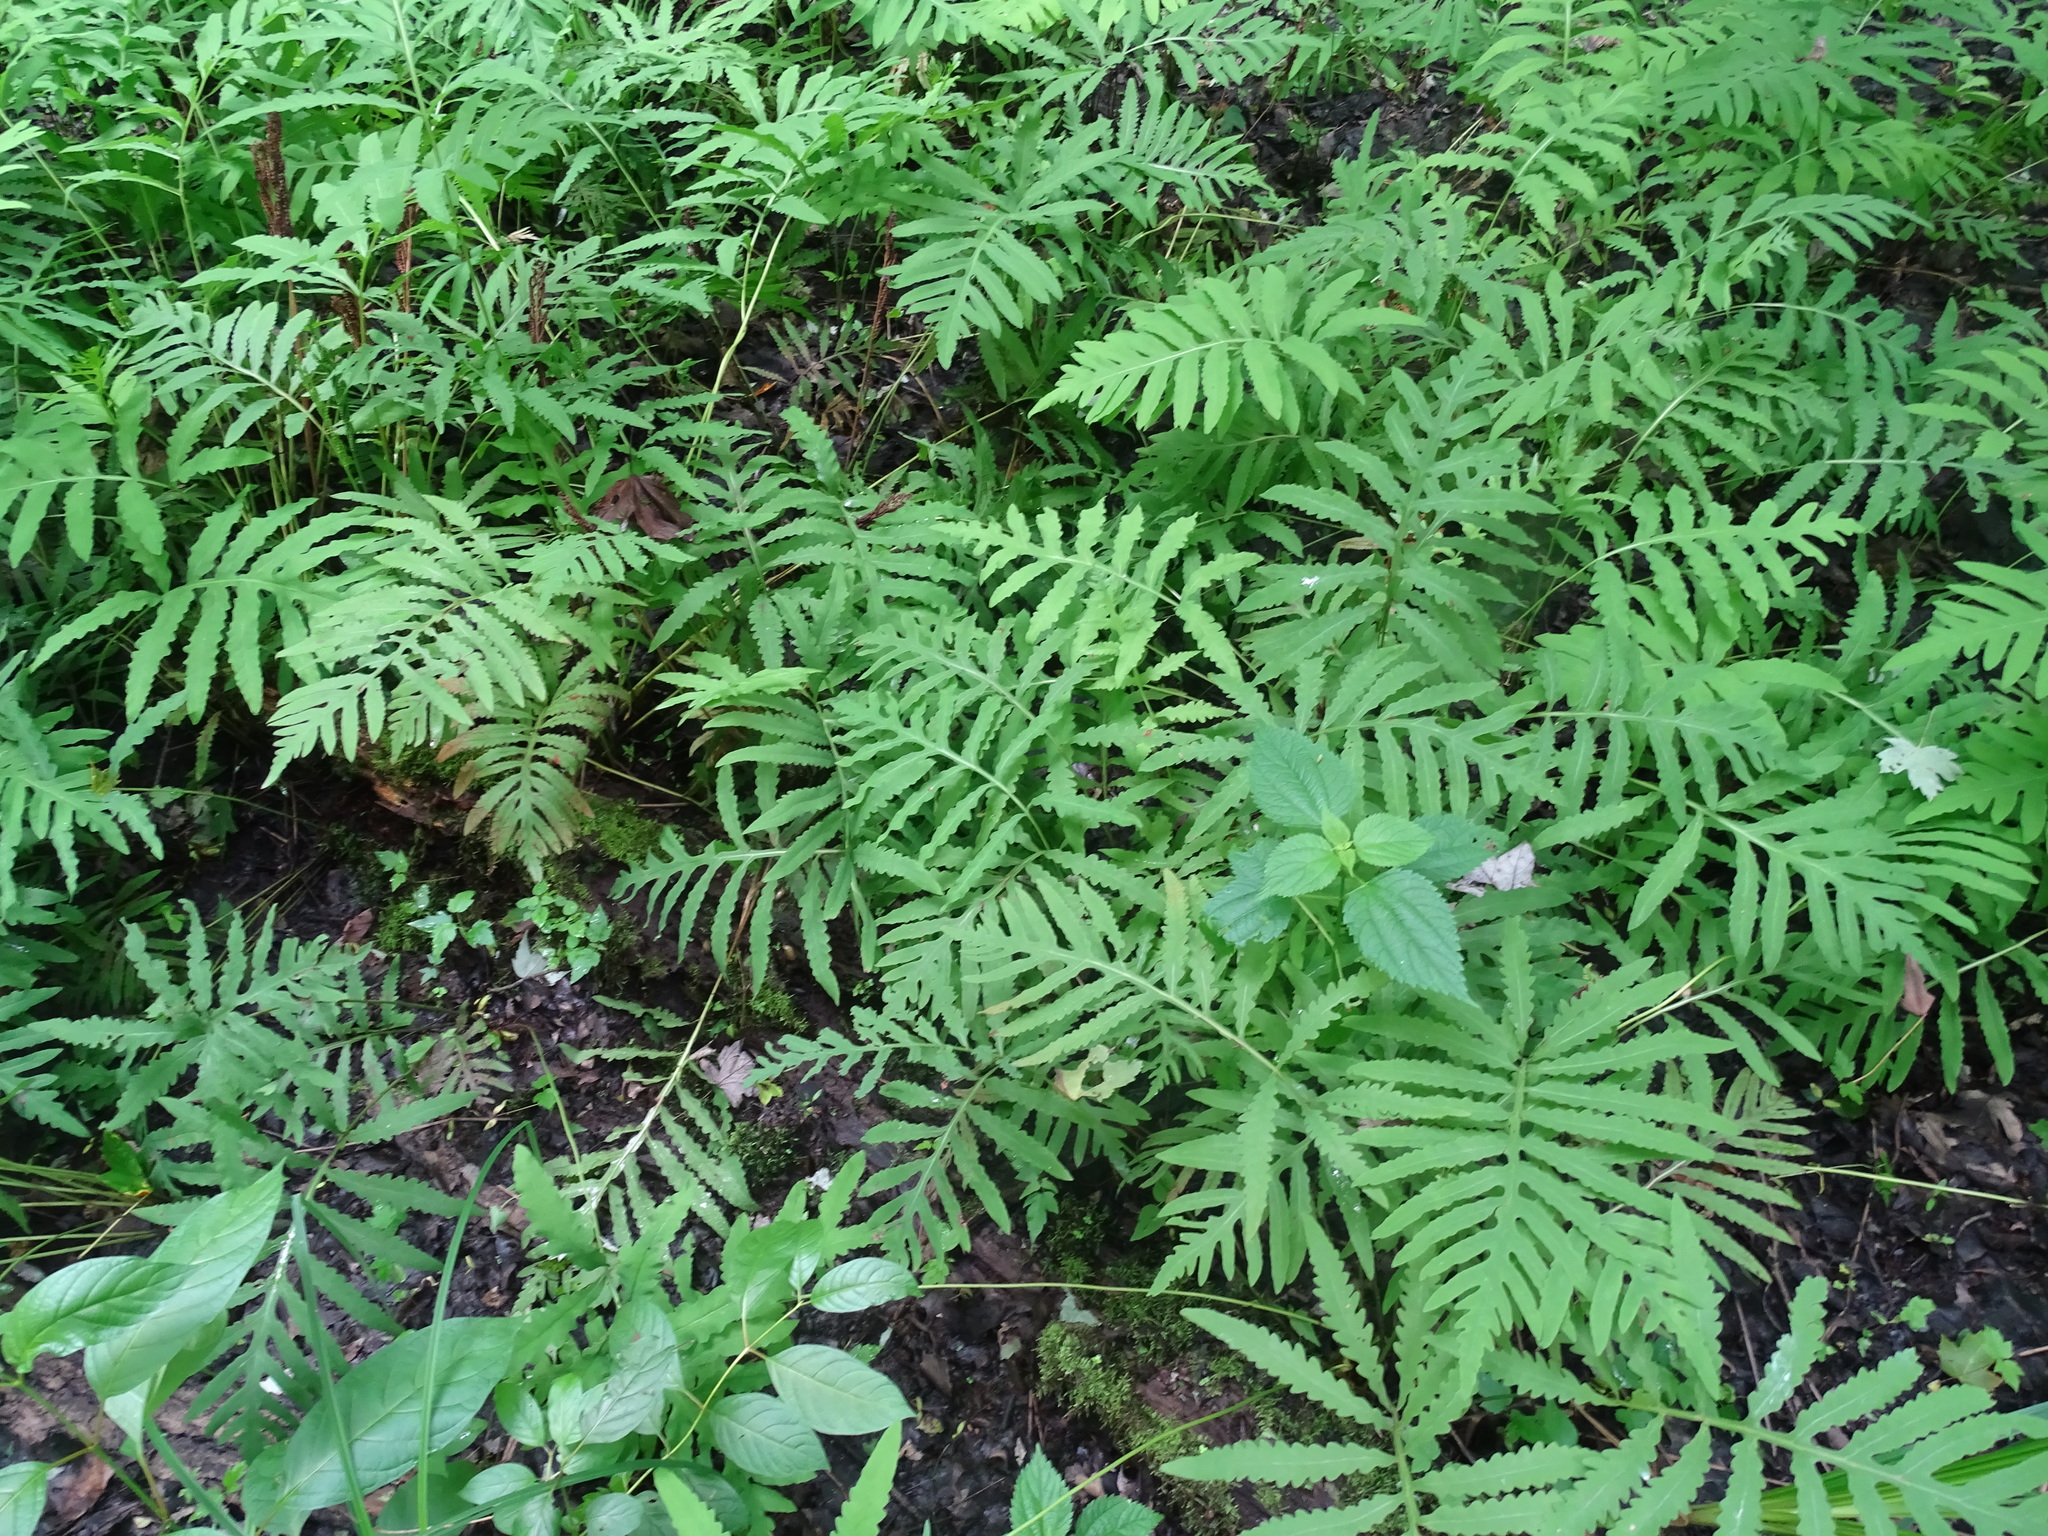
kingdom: Plantae
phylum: Tracheophyta
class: Polypodiopsida
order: Polypodiales
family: Onocleaceae
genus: Onoclea
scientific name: Onoclea sensibilis
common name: Sensitive fern
